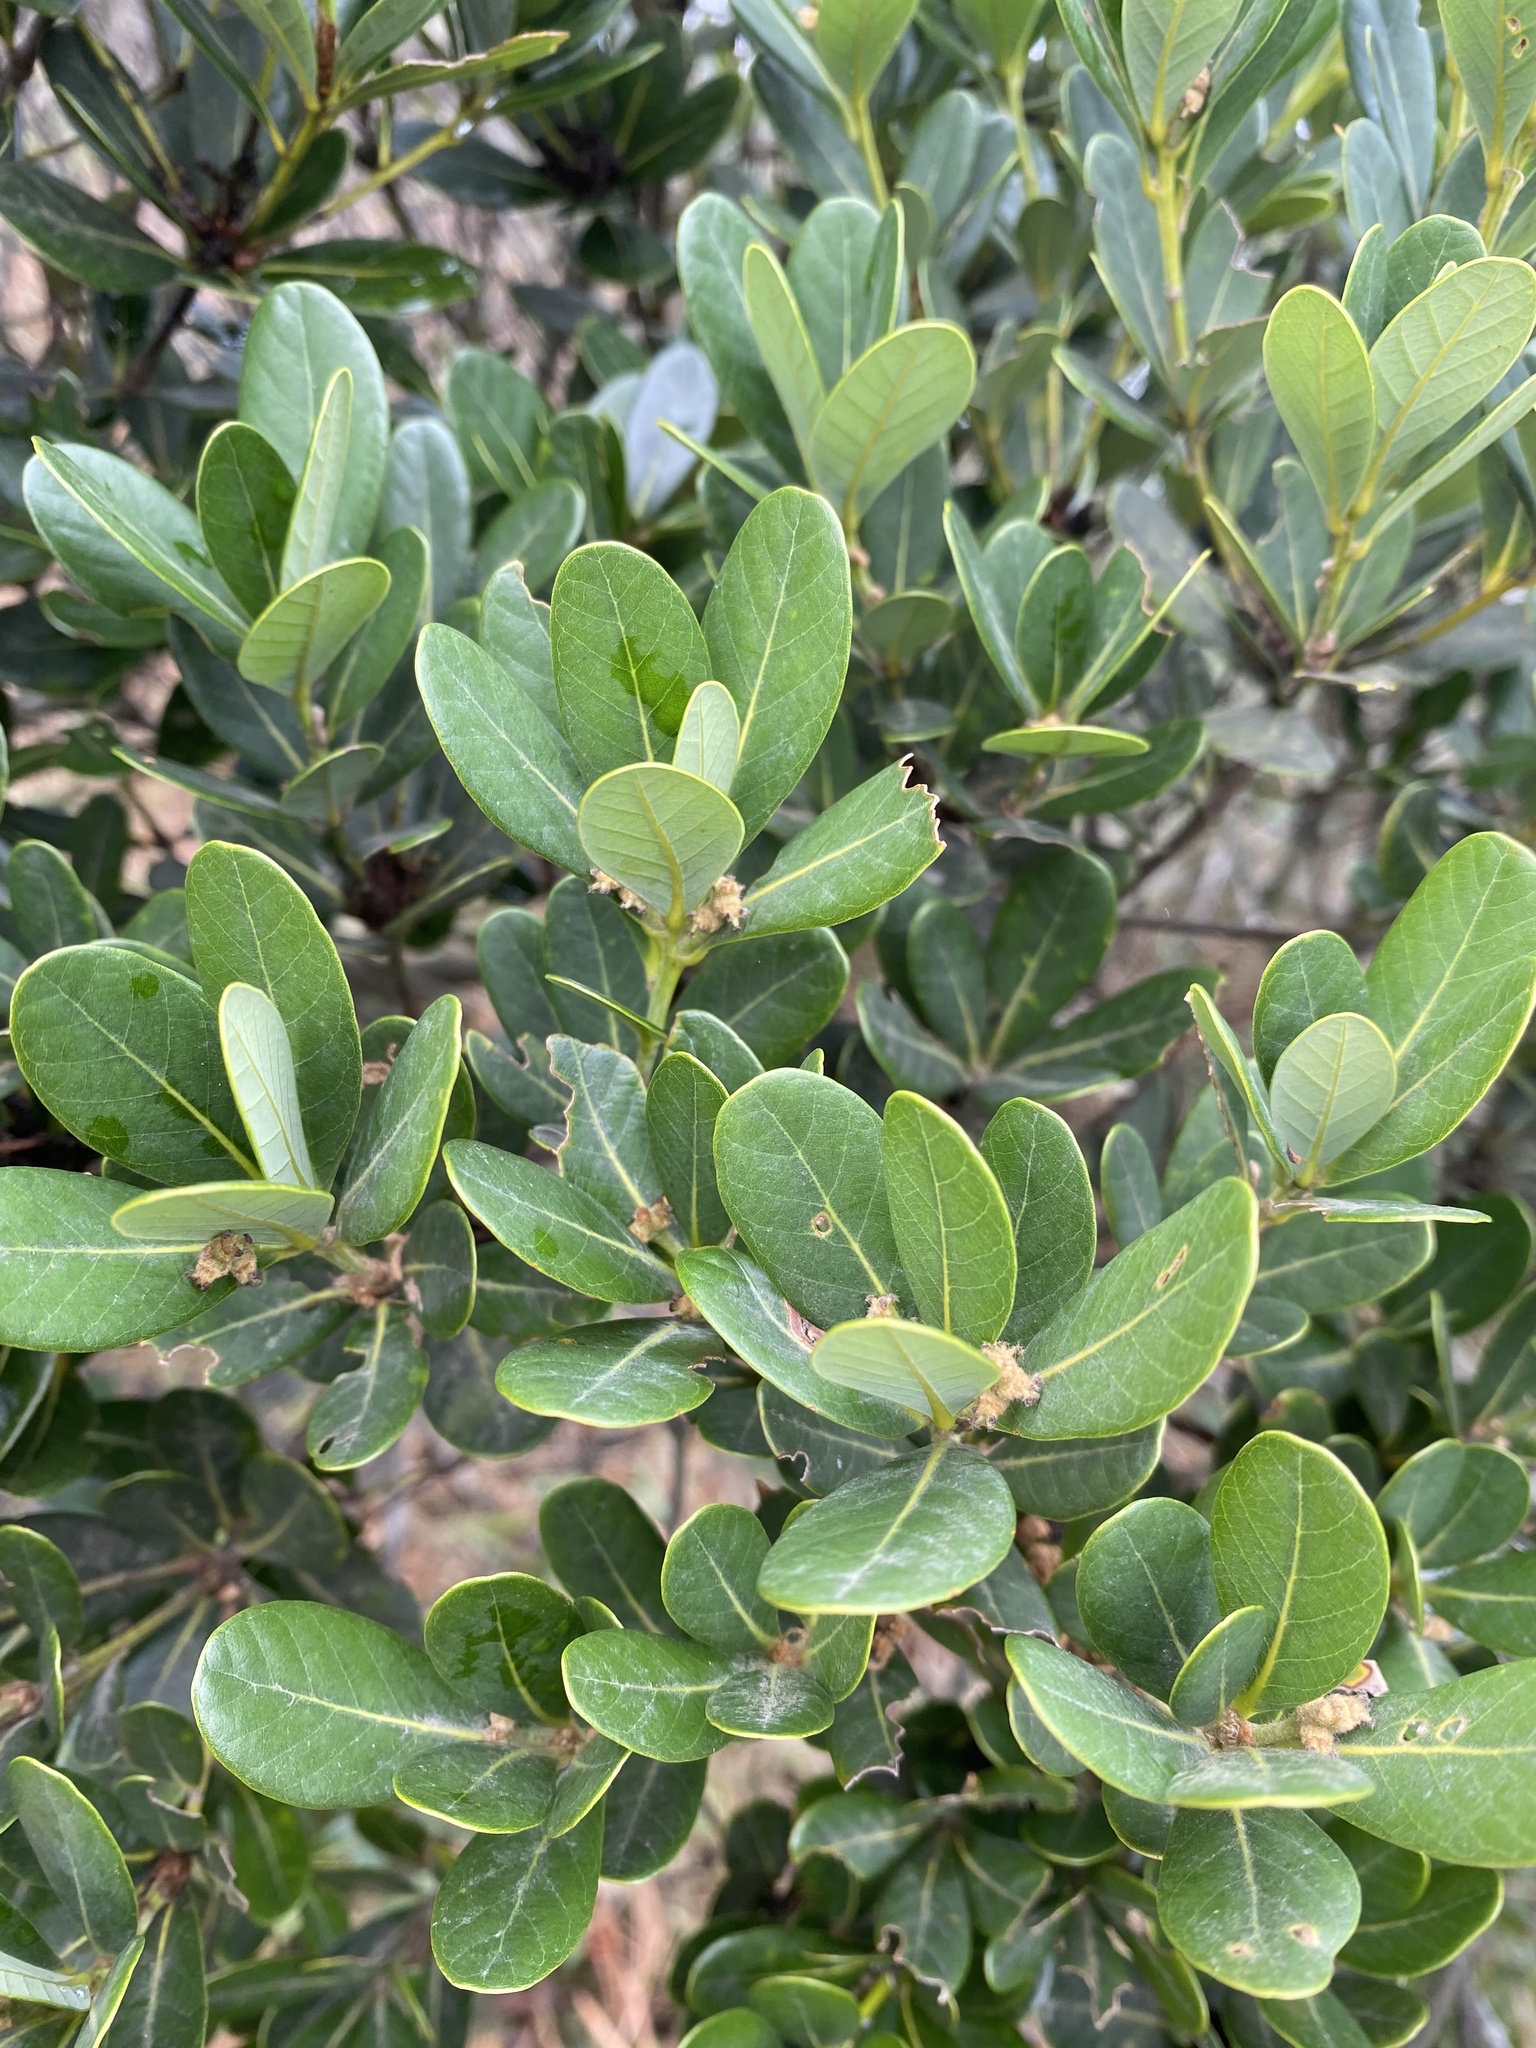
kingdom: Plantae
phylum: Tracheophyta
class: Magnoliopsida
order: Fagales
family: Fagaceae
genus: Quercus
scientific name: Quercus championii
